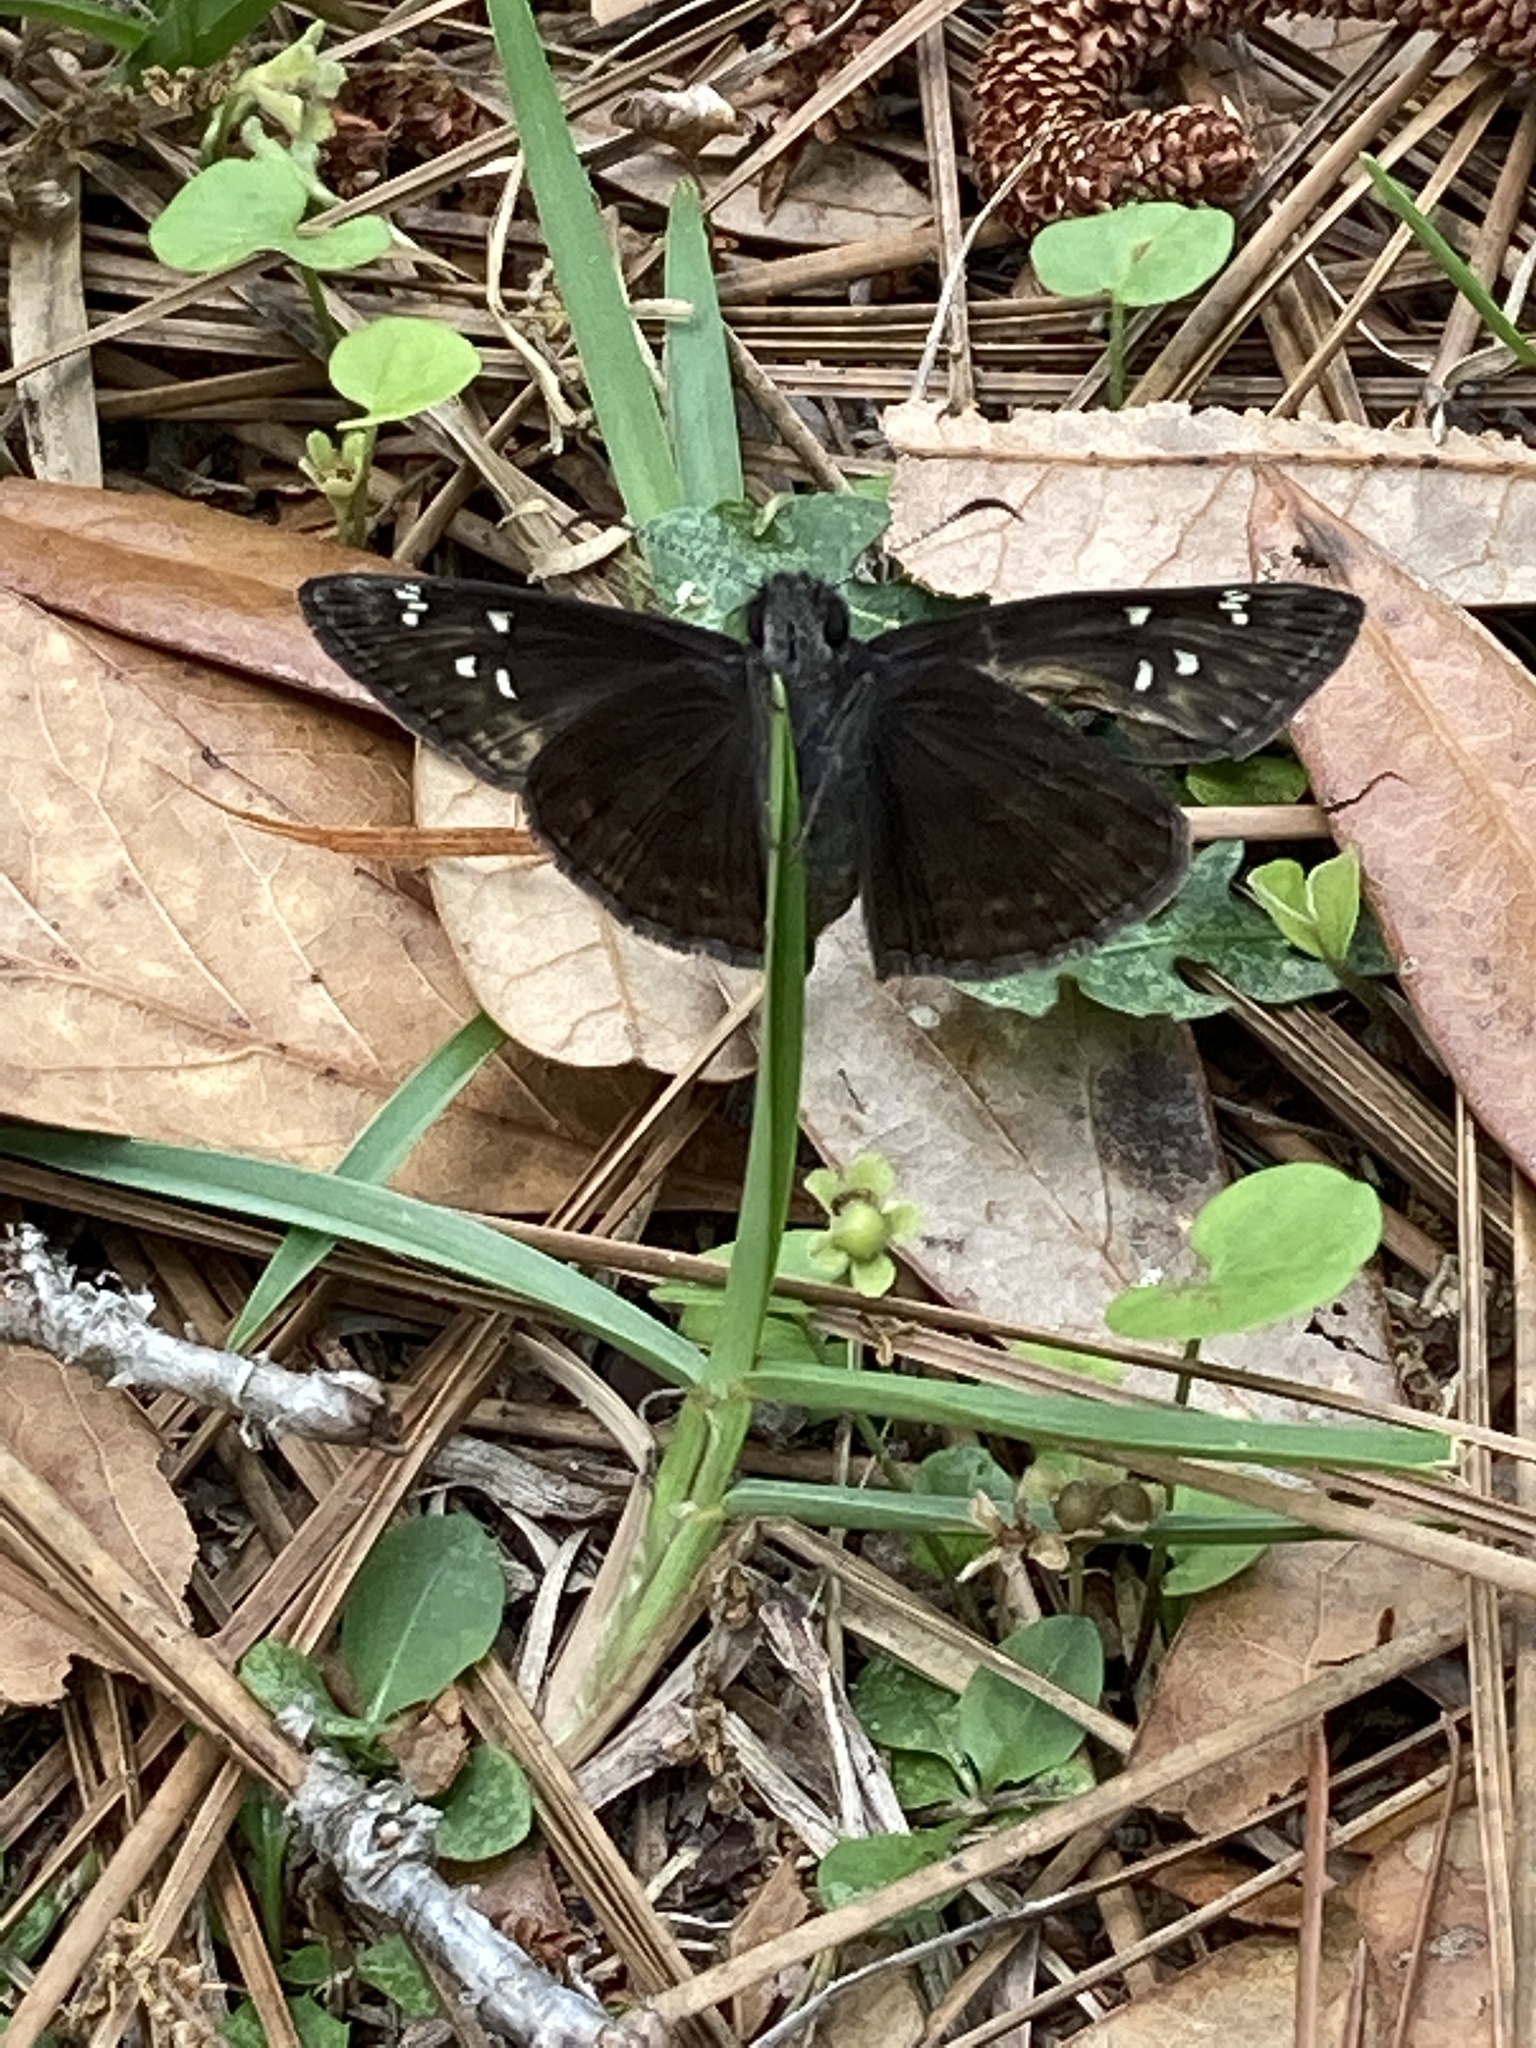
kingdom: Animalia
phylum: Arthropoda
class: Insecta
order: Lepidoptera
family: Hesperiidae
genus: Erynnis
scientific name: Erynnis horatius
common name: Horace's duskywing
